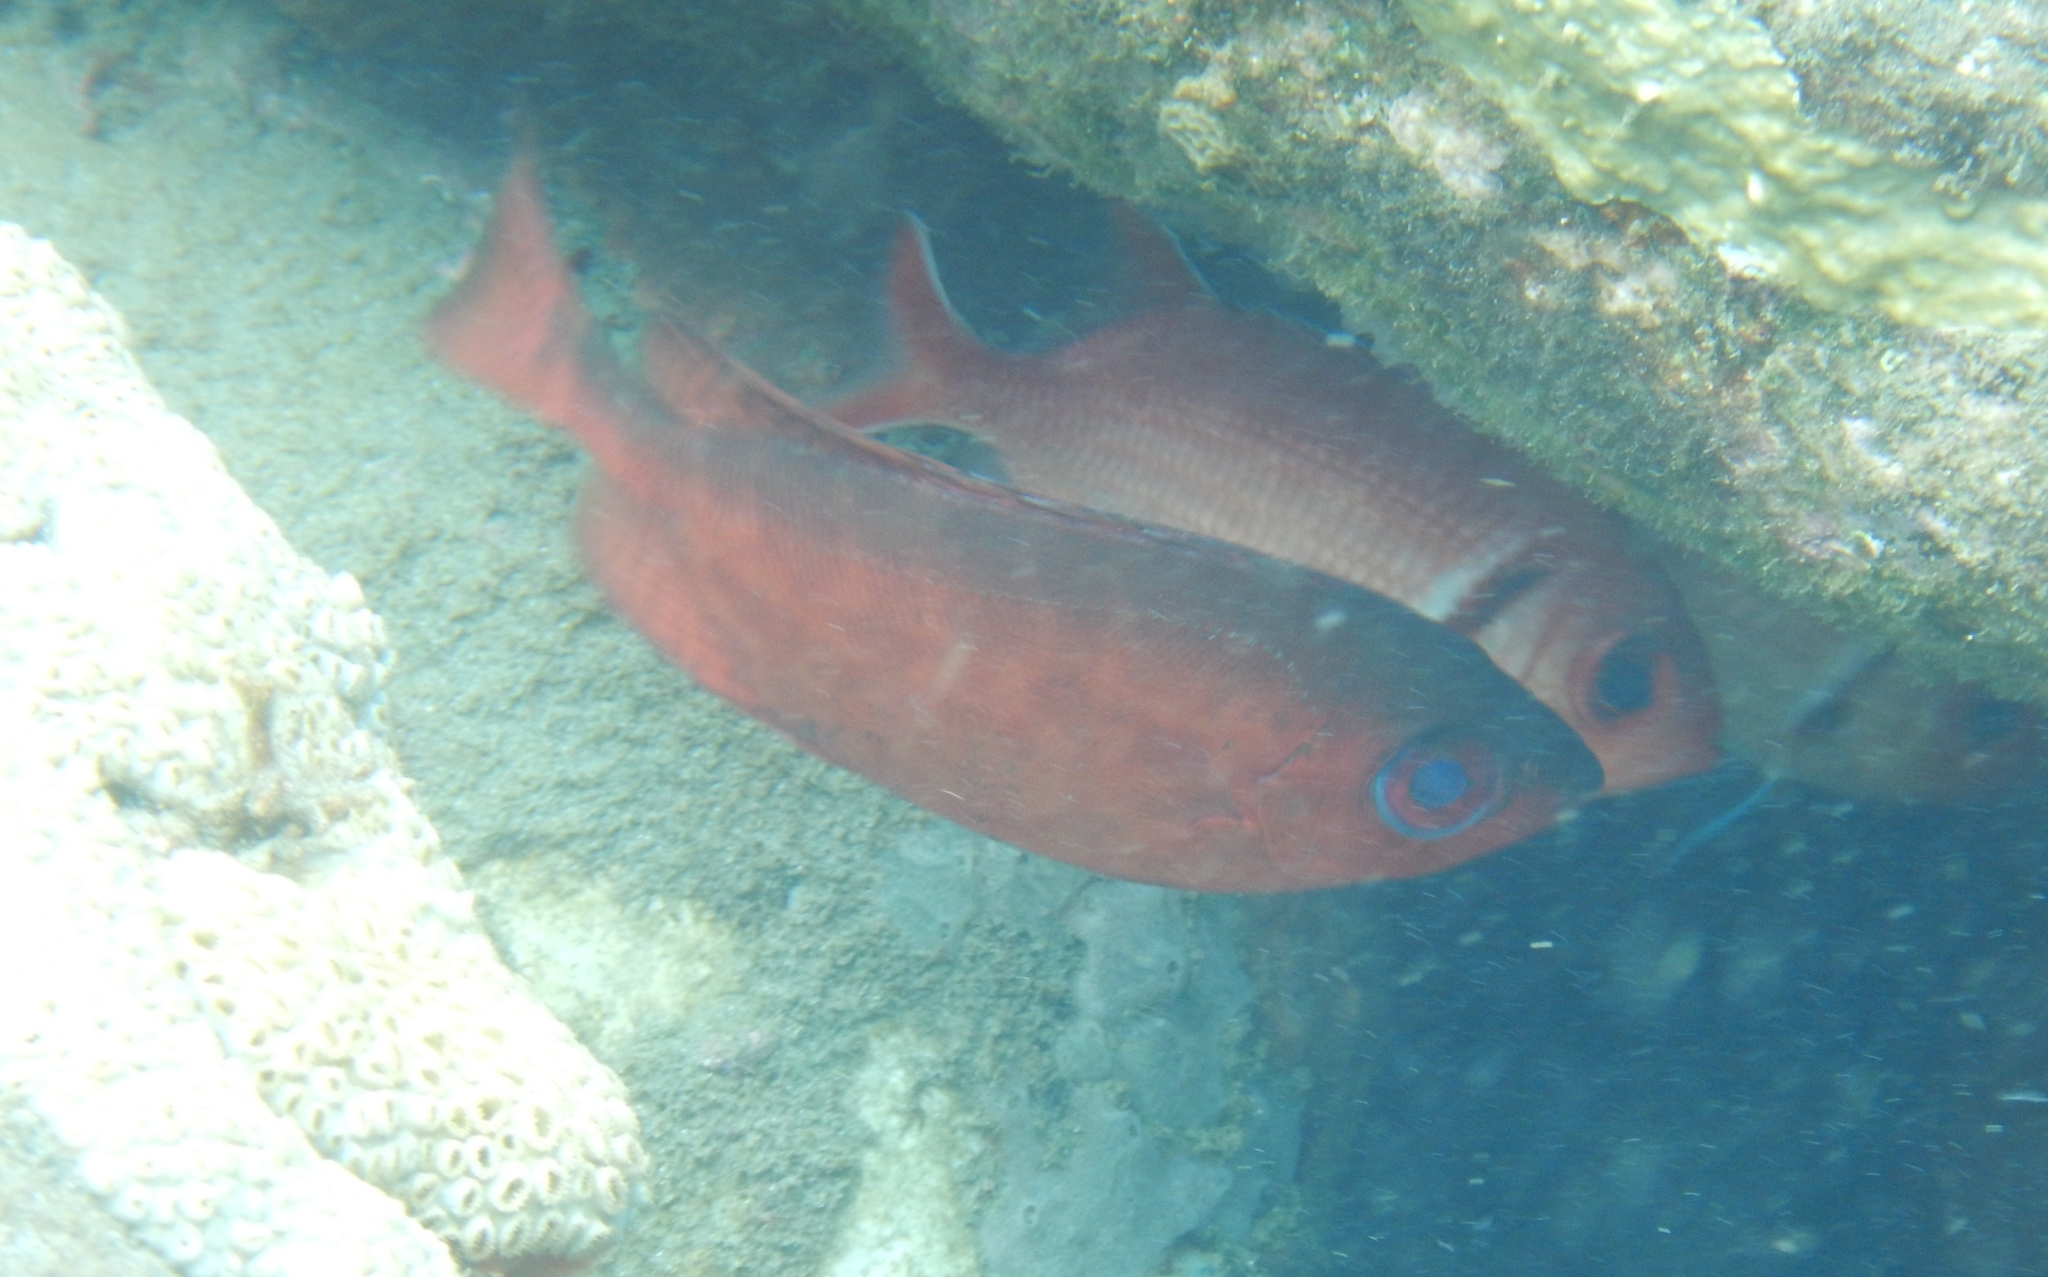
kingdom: Animalia
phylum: Chordata
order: Perciformes
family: Priacanthidae
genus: Heteropriacanthus
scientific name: Heteropriacanthus cruentatus
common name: Glasseye
